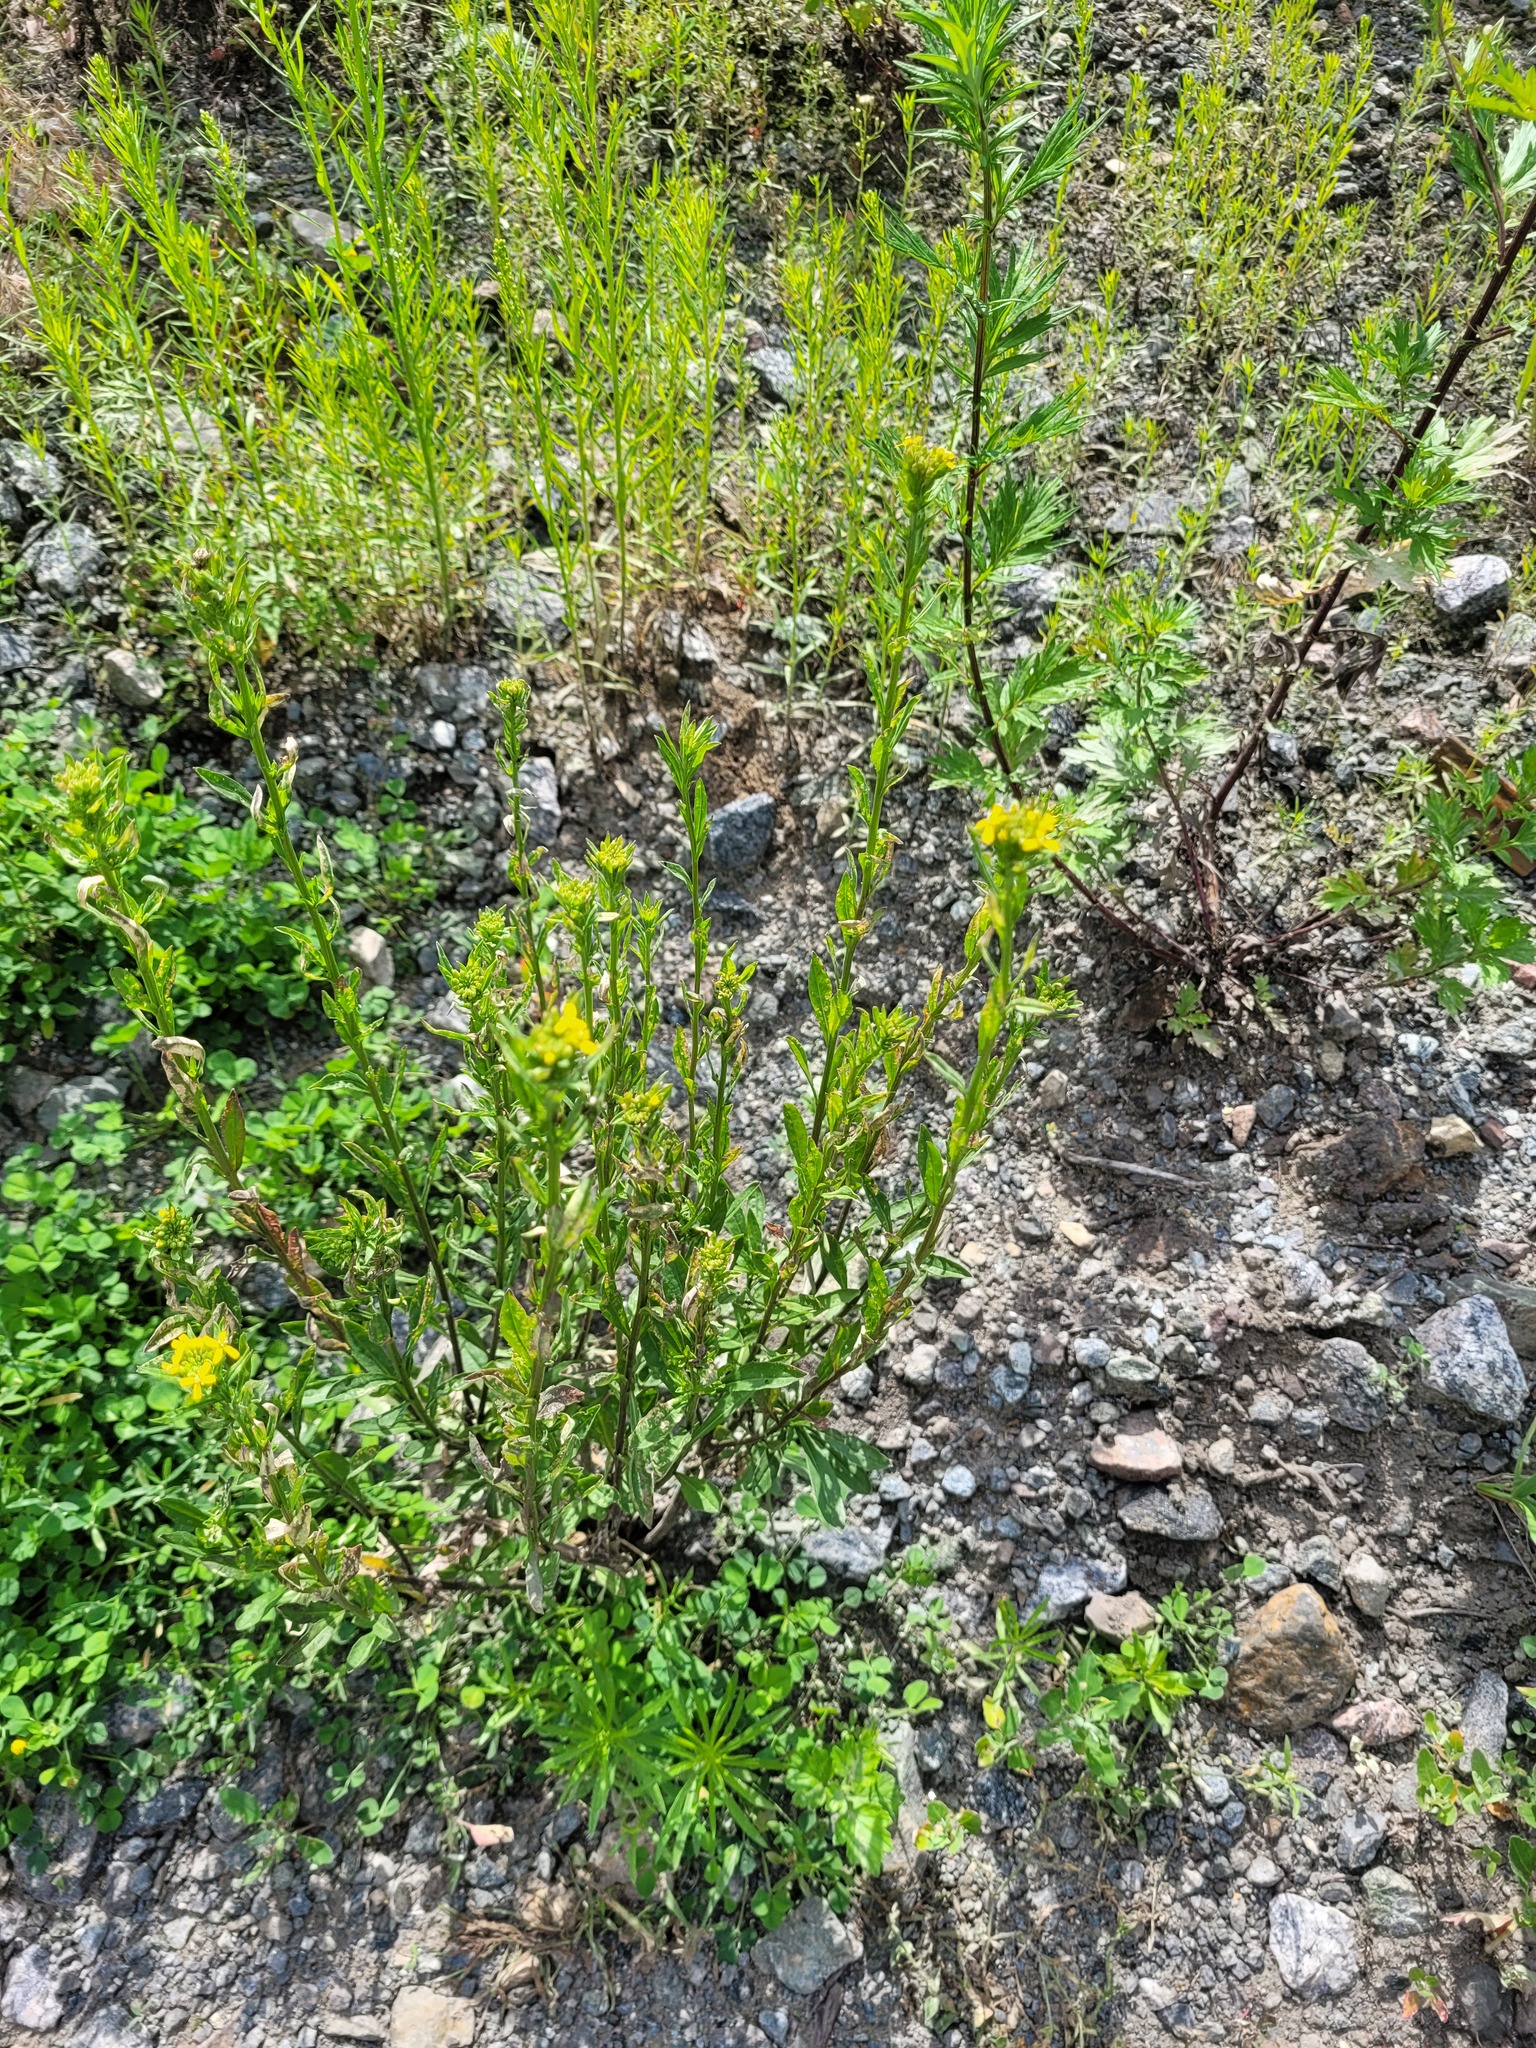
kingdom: Plantae
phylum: Tracheophyta
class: Magnoliopsida
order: Brassicales
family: Brassicaceae
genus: Erysimum
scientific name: Erysimum hieraciifolium
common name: European wallflower
